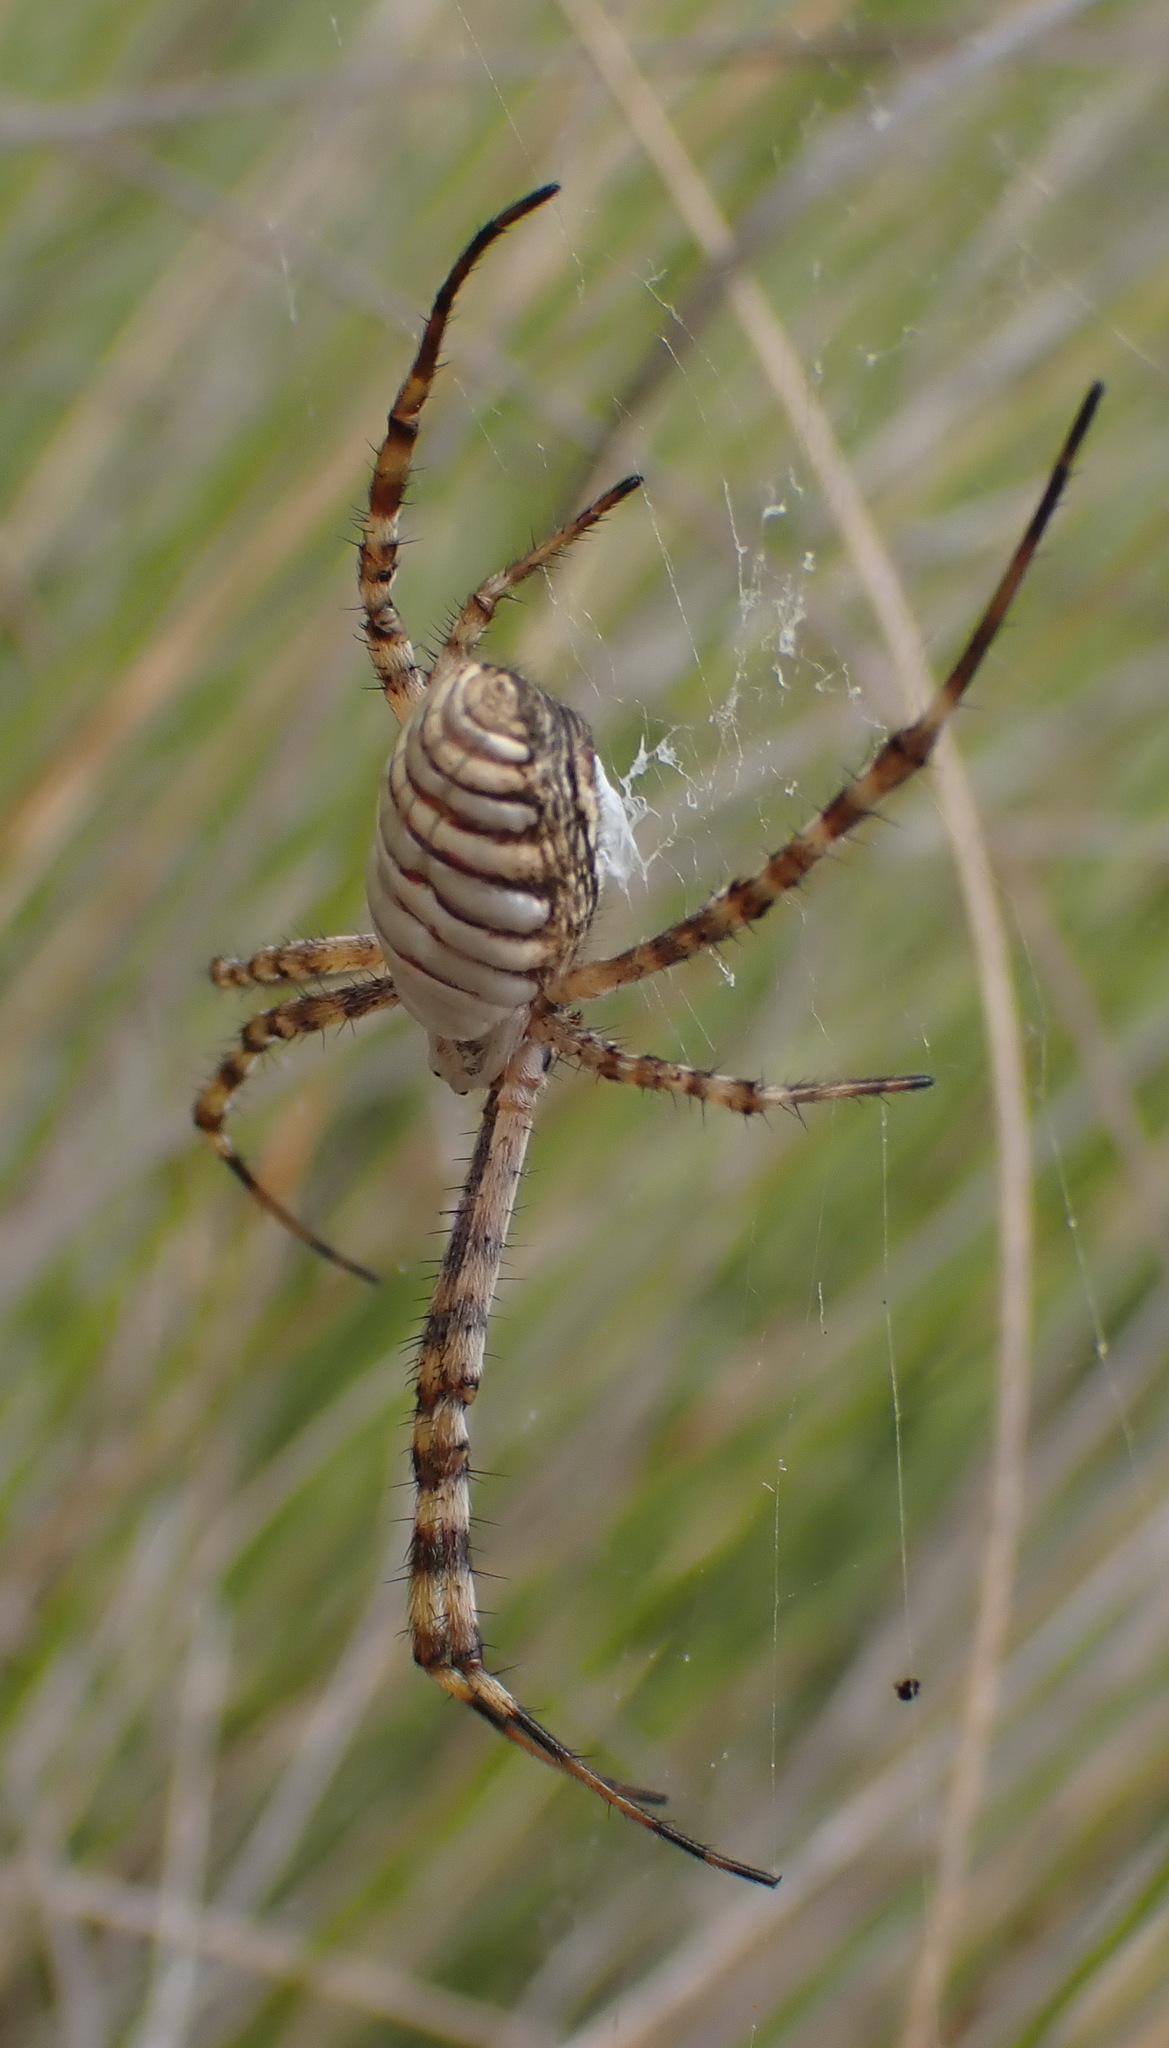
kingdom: Animalia
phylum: Arthropoda
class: Arachnida
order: Araneae
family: Araneidae
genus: Argiope
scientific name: Argiope trifasciata
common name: Banded garden spider
